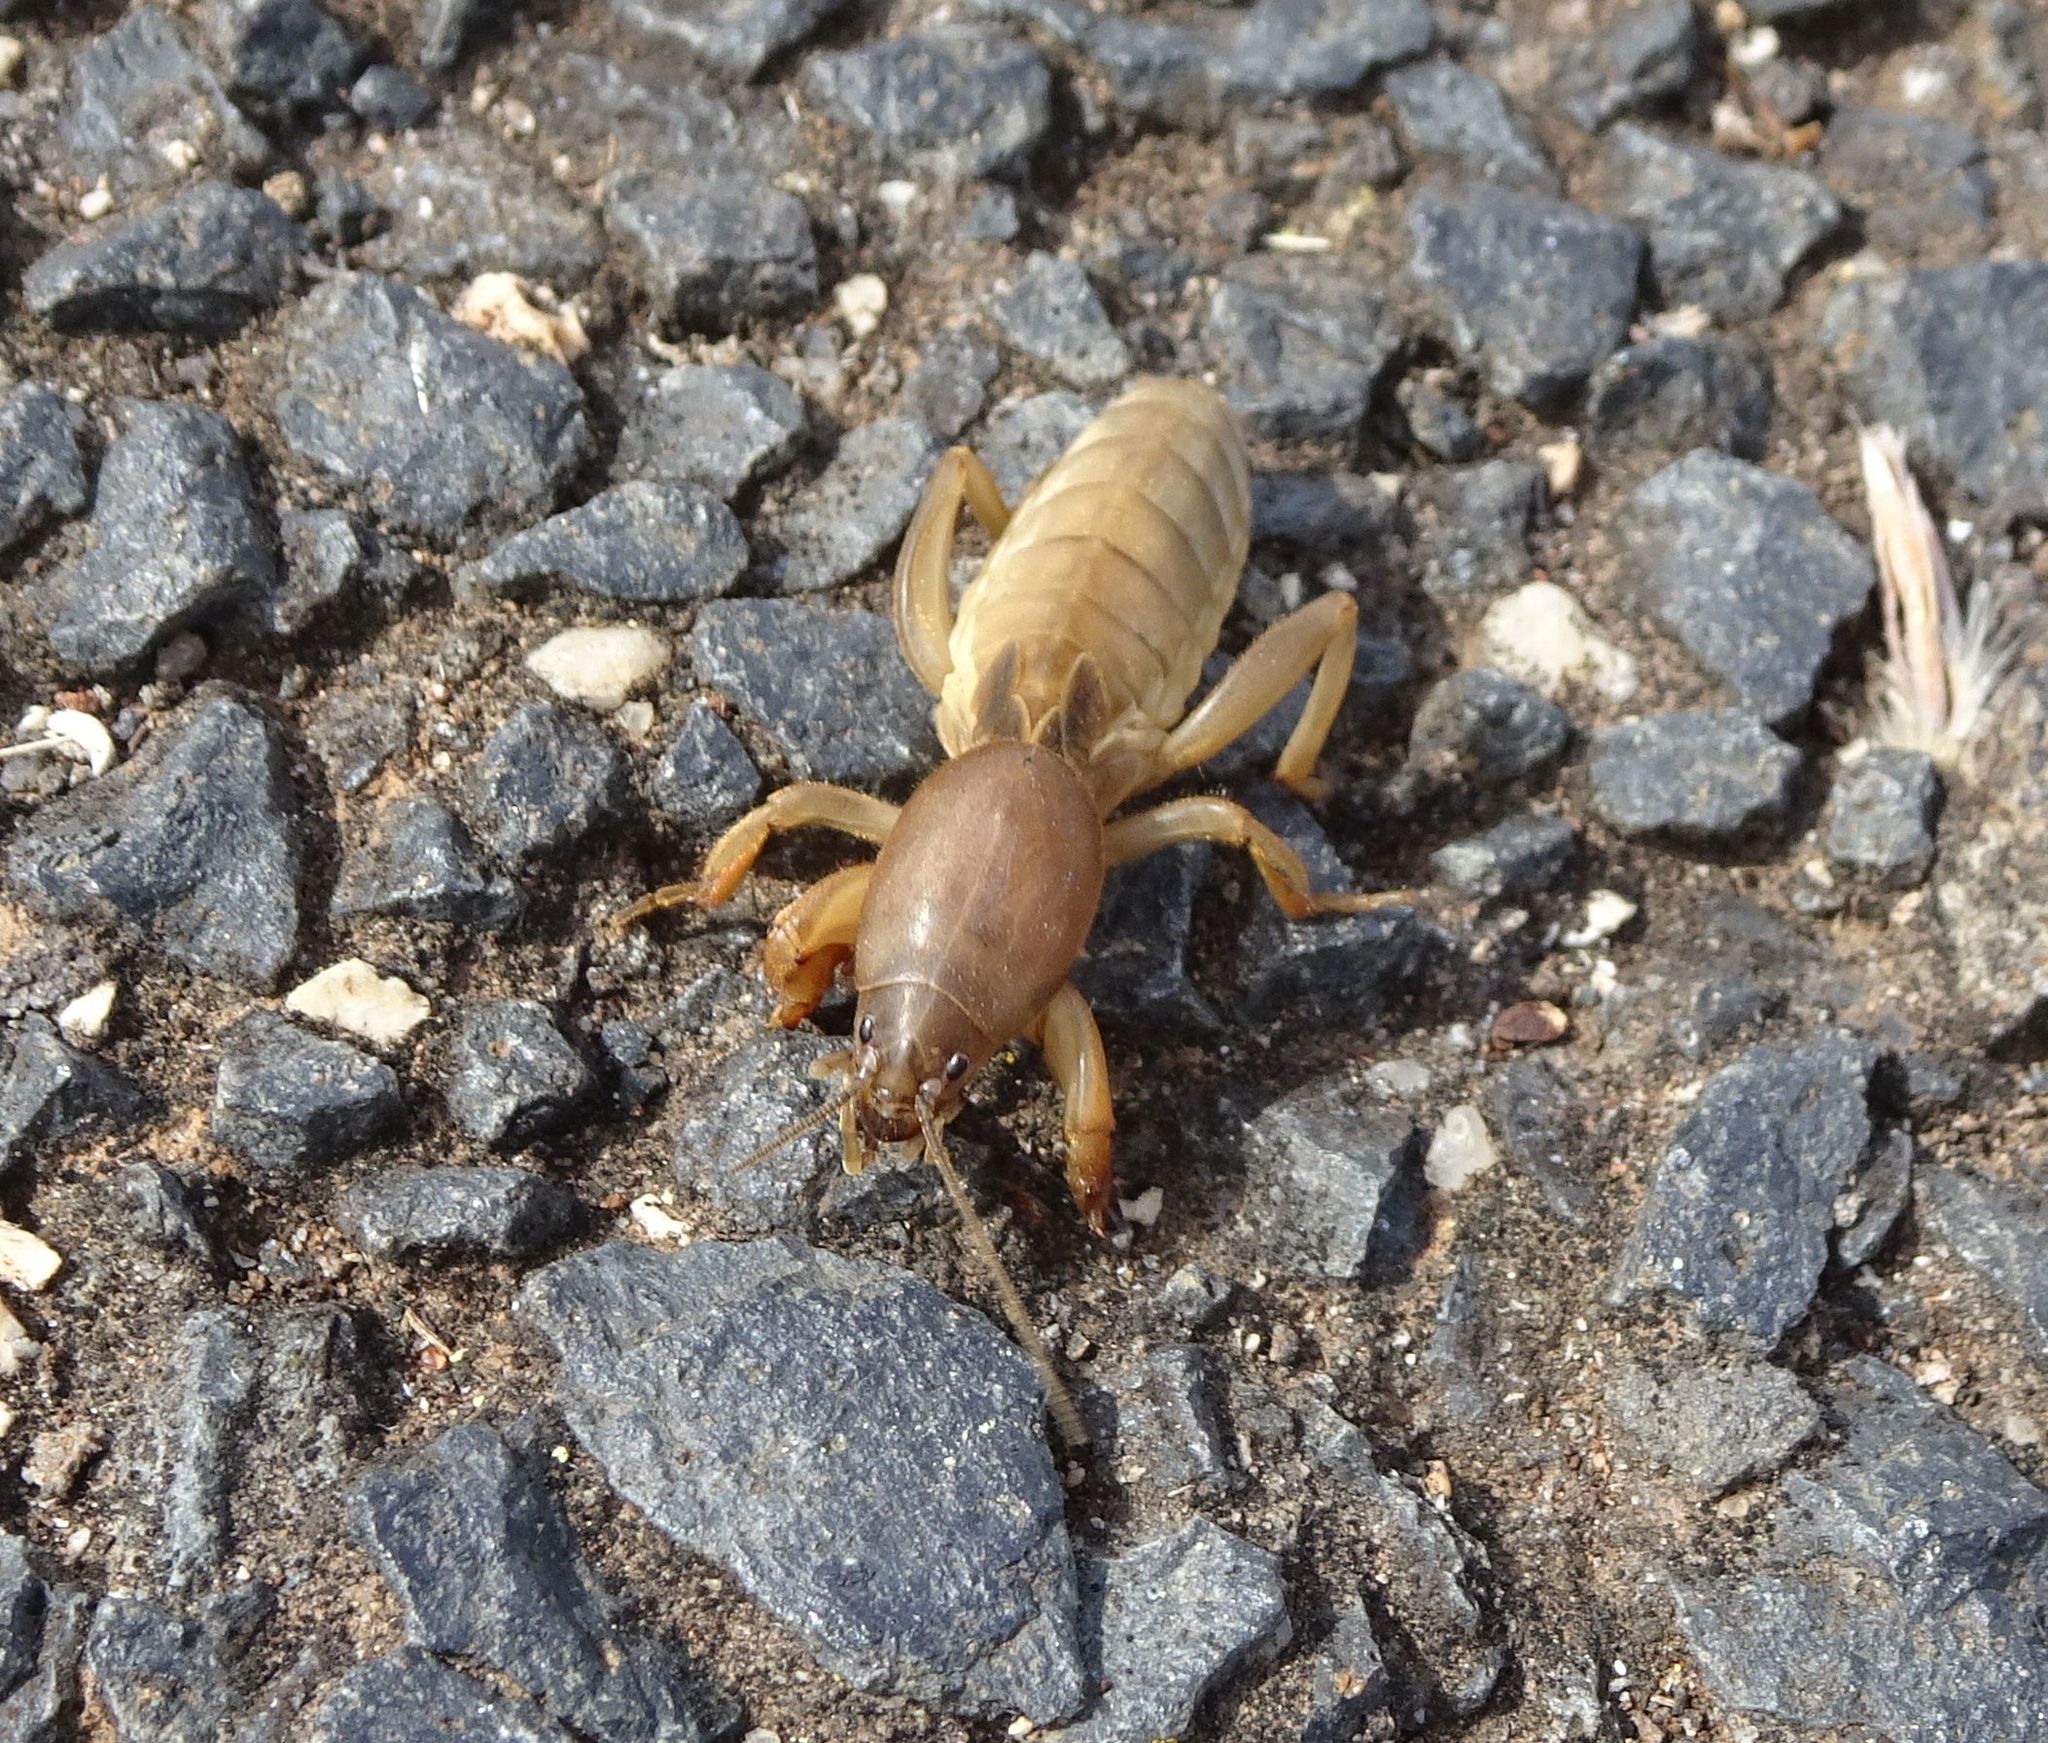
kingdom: Animalia
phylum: Arthropoda
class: Insecta
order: Orthoptera
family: Gryllotalpidae
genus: Gryllotalpa
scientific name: Gryllotalpa australis
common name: Southern mole cricket
